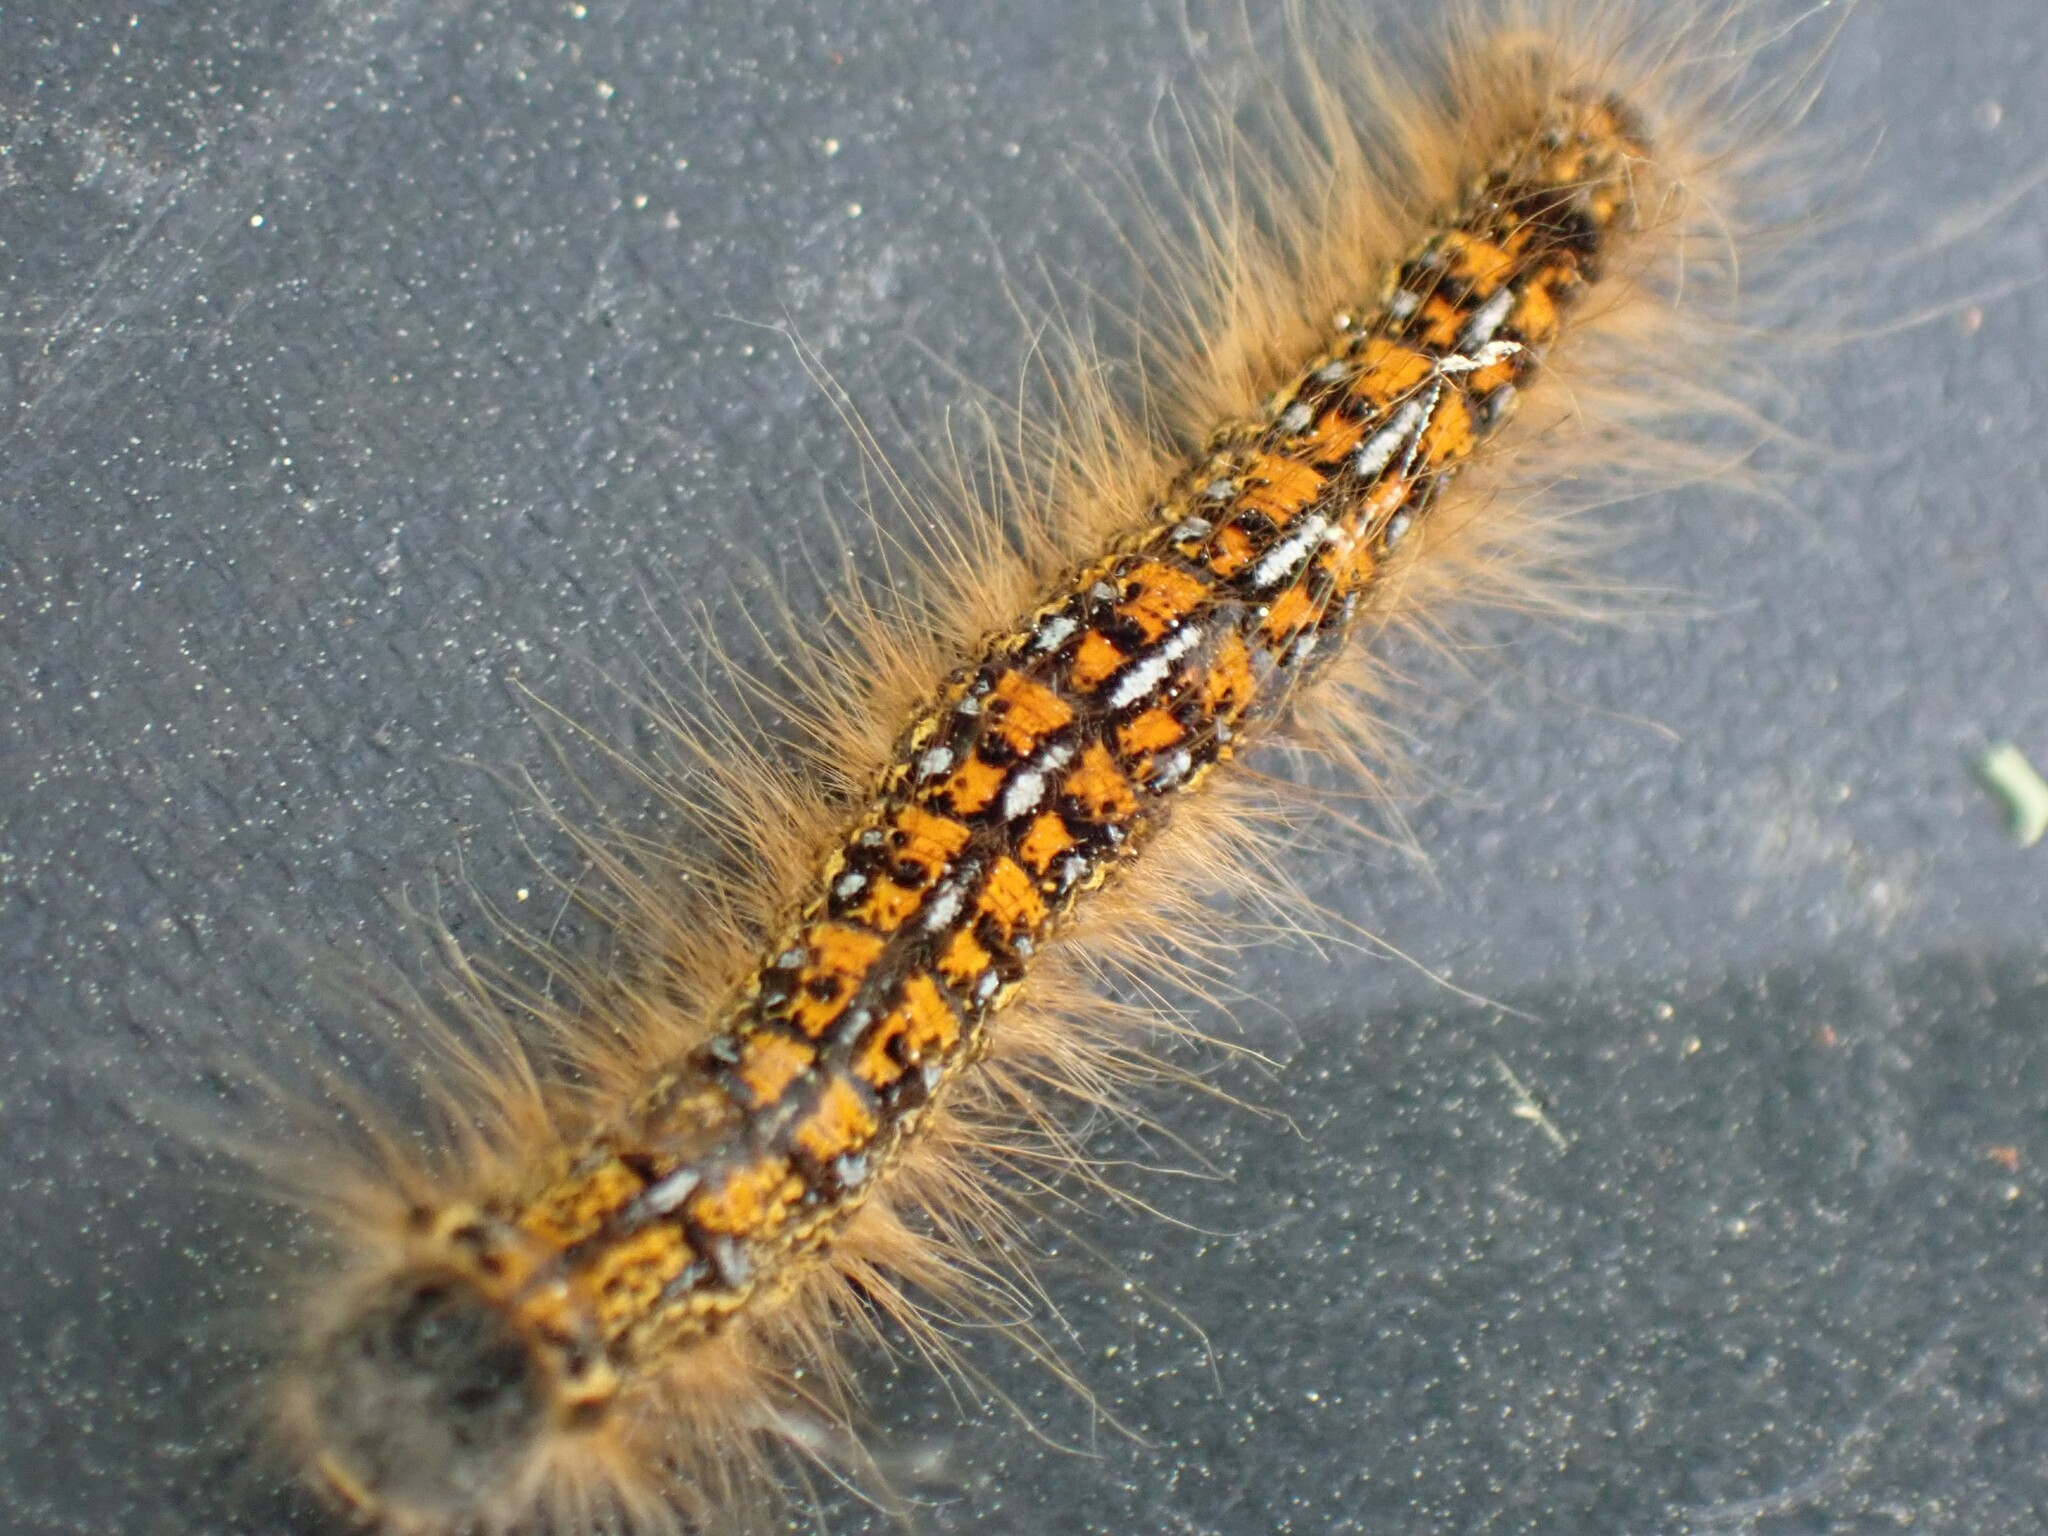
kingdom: Animalia
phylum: Arthropoda
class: Insecta
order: Lepidoptera
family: Lasiocampidae
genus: Malacosoma
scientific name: Malacosoma californica
